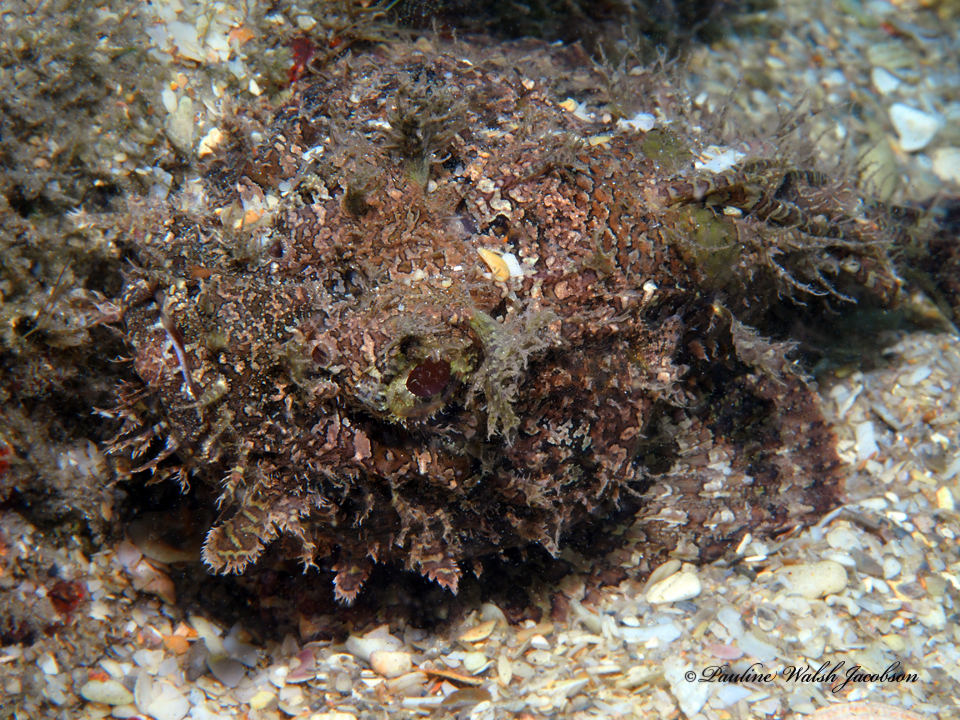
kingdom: Animalia
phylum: Chordata
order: Scorpaeniformes
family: Scorpaenidae
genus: Scorpaena
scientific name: Scorpaena plumieri
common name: Spotted scorpionfish
